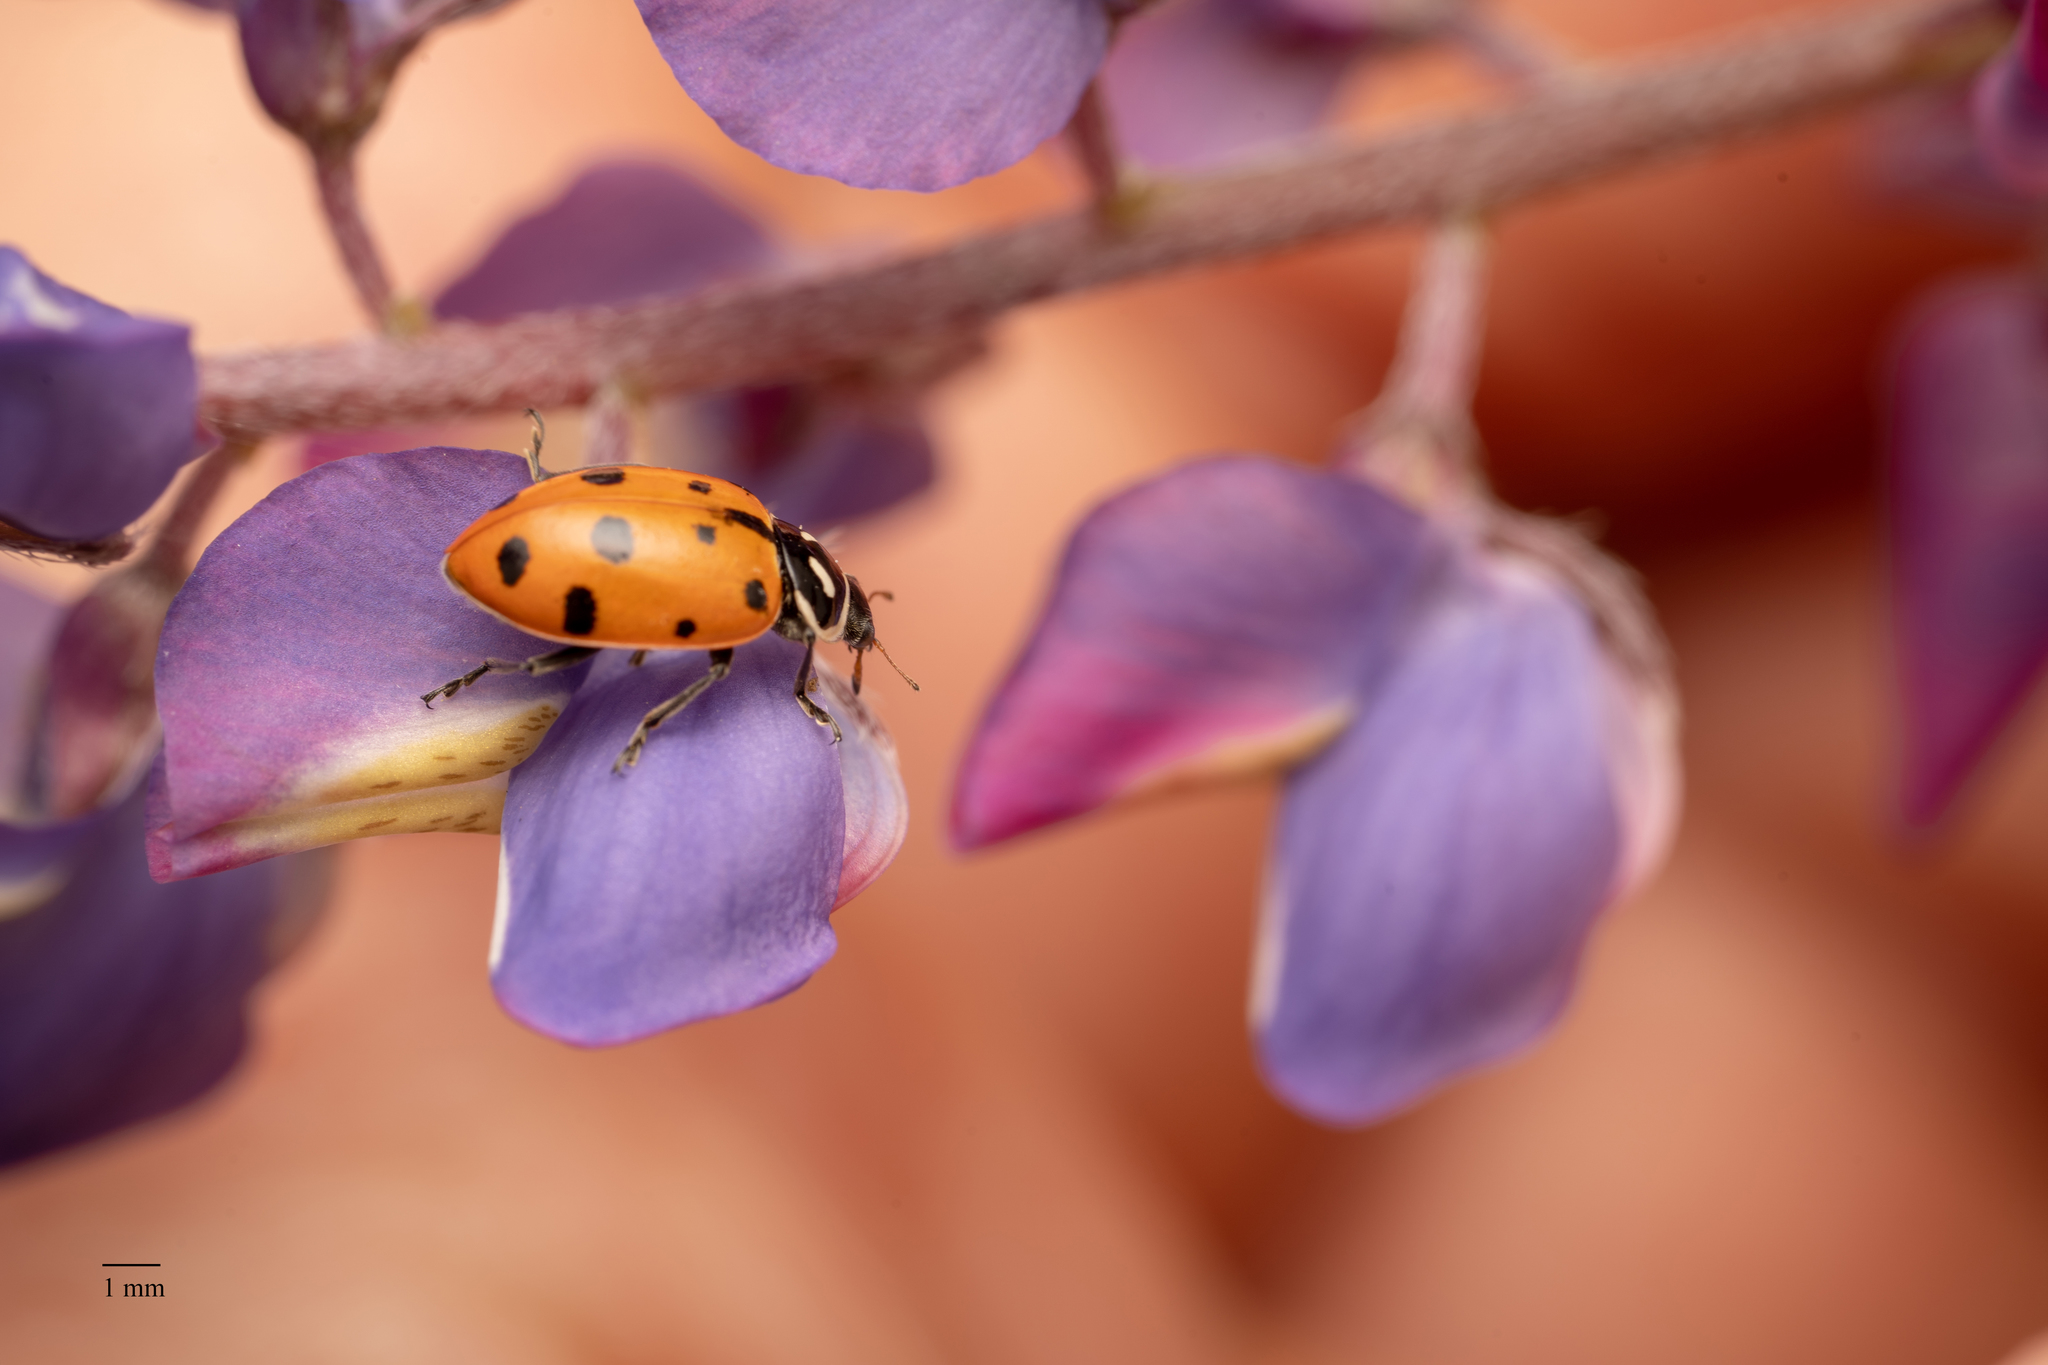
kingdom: Animalia
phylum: Arthropoda
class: Insecta
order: Coleoptera
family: Coccinellidae
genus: Hippodamia
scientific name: Hippodamia convergens
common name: Convergent lady beetle
